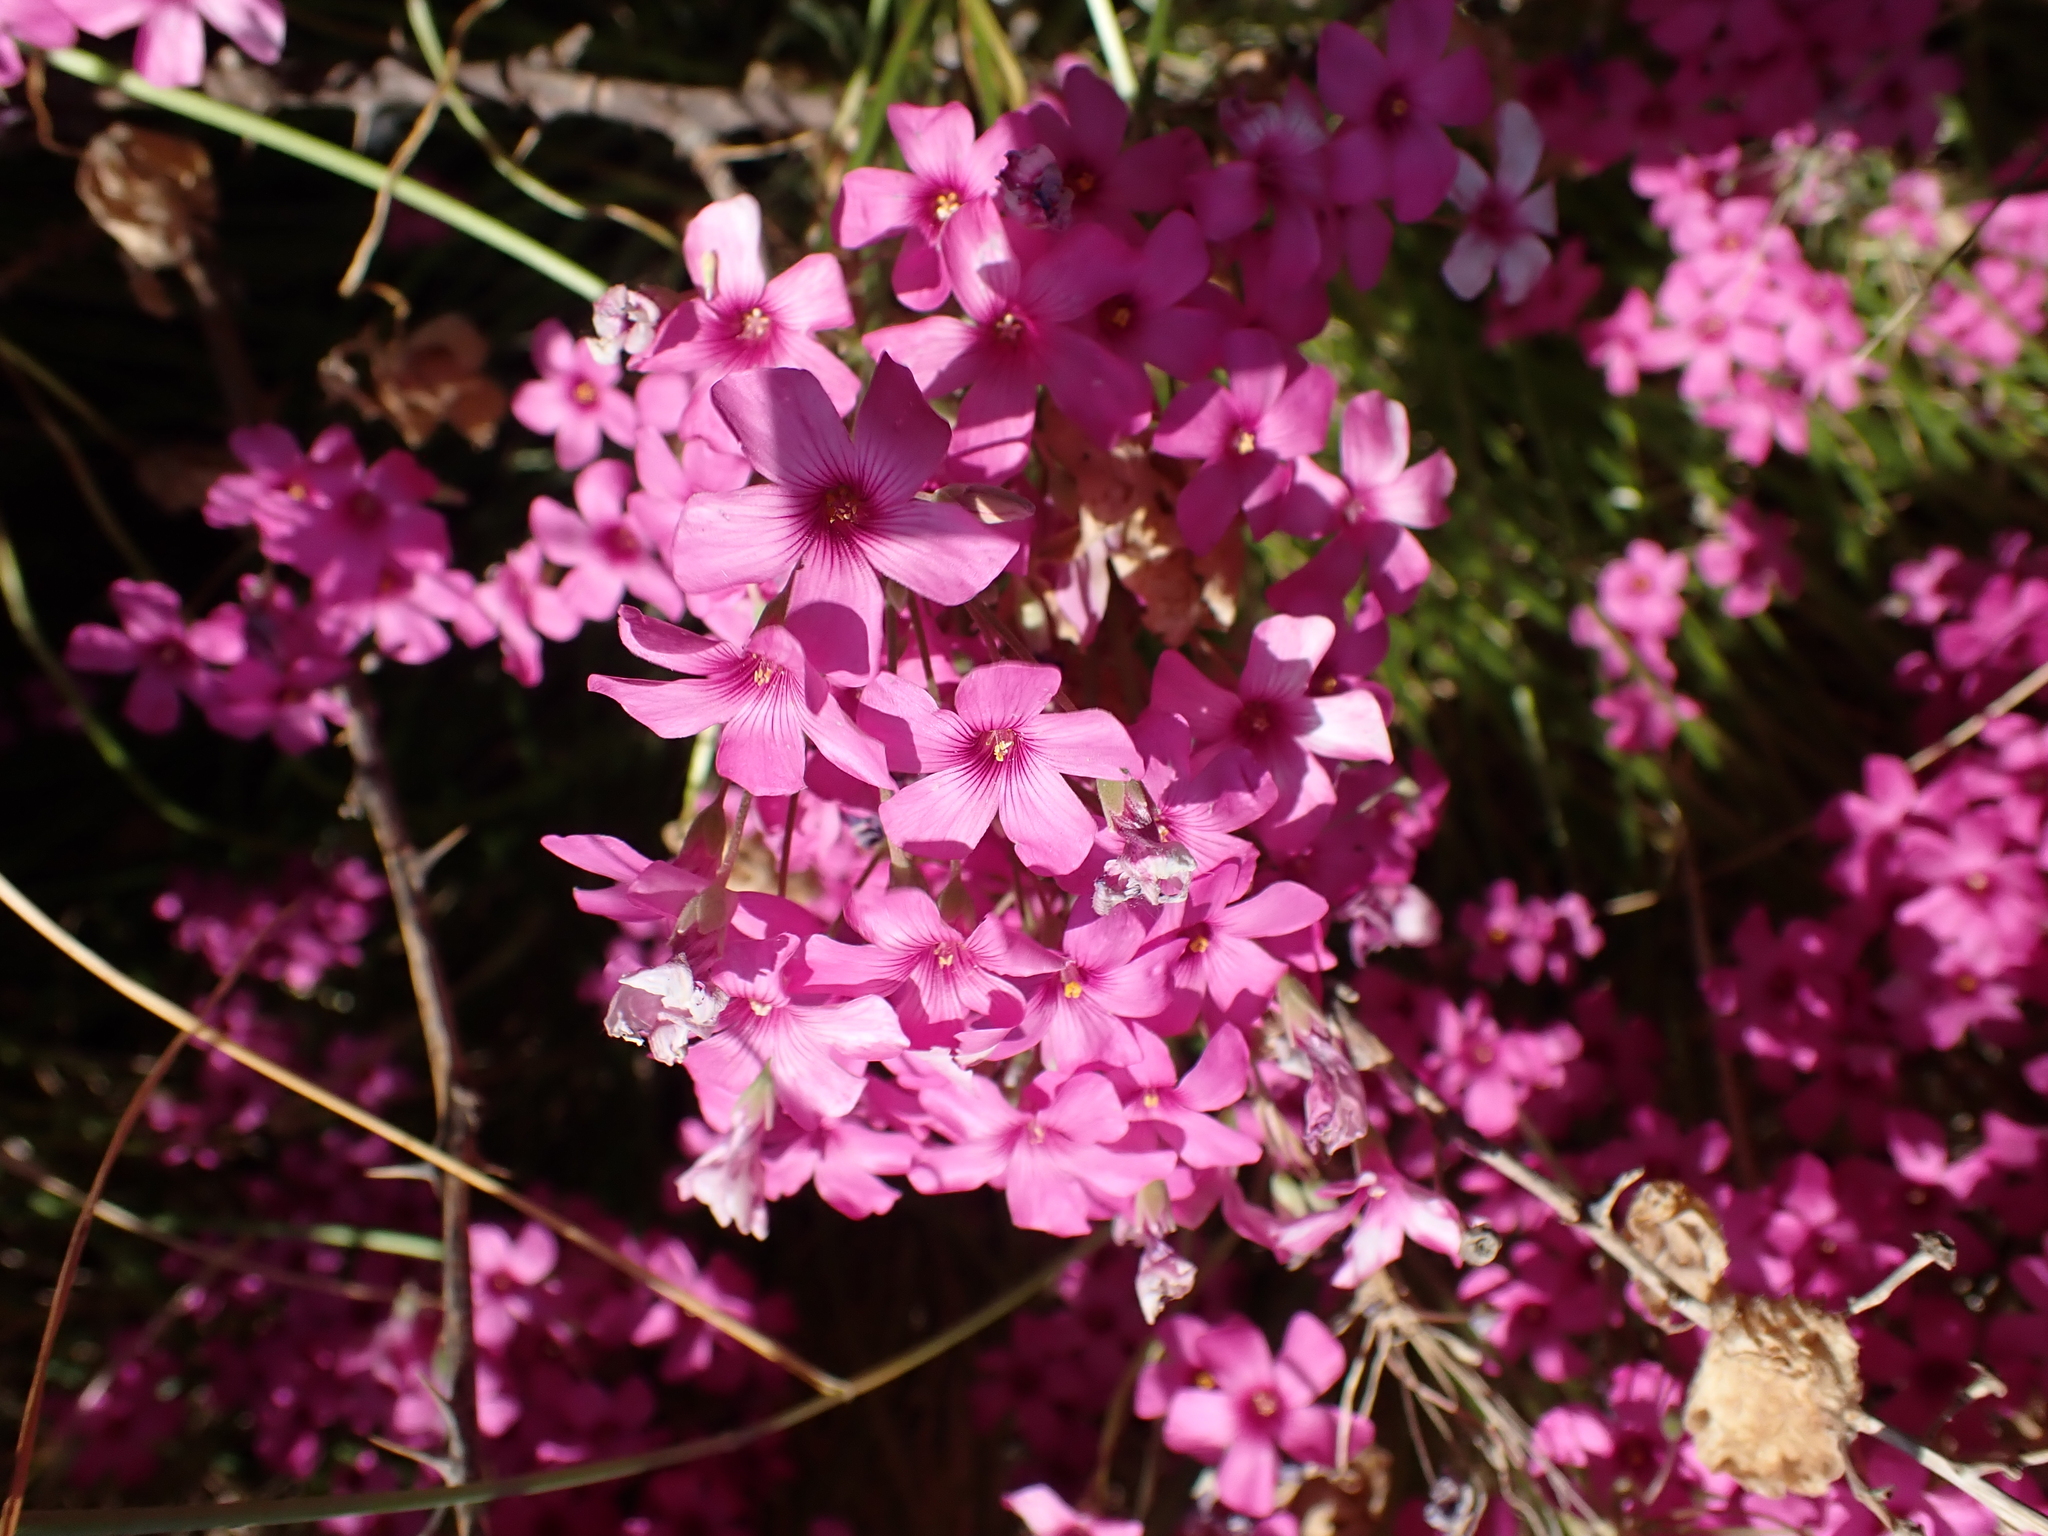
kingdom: Plantae
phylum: Tracheophyta
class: Magnoliopsida
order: Oxalidales
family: Oxalidaceae
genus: Oxalis
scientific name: Oxalis articulata
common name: Pink-sorrel
